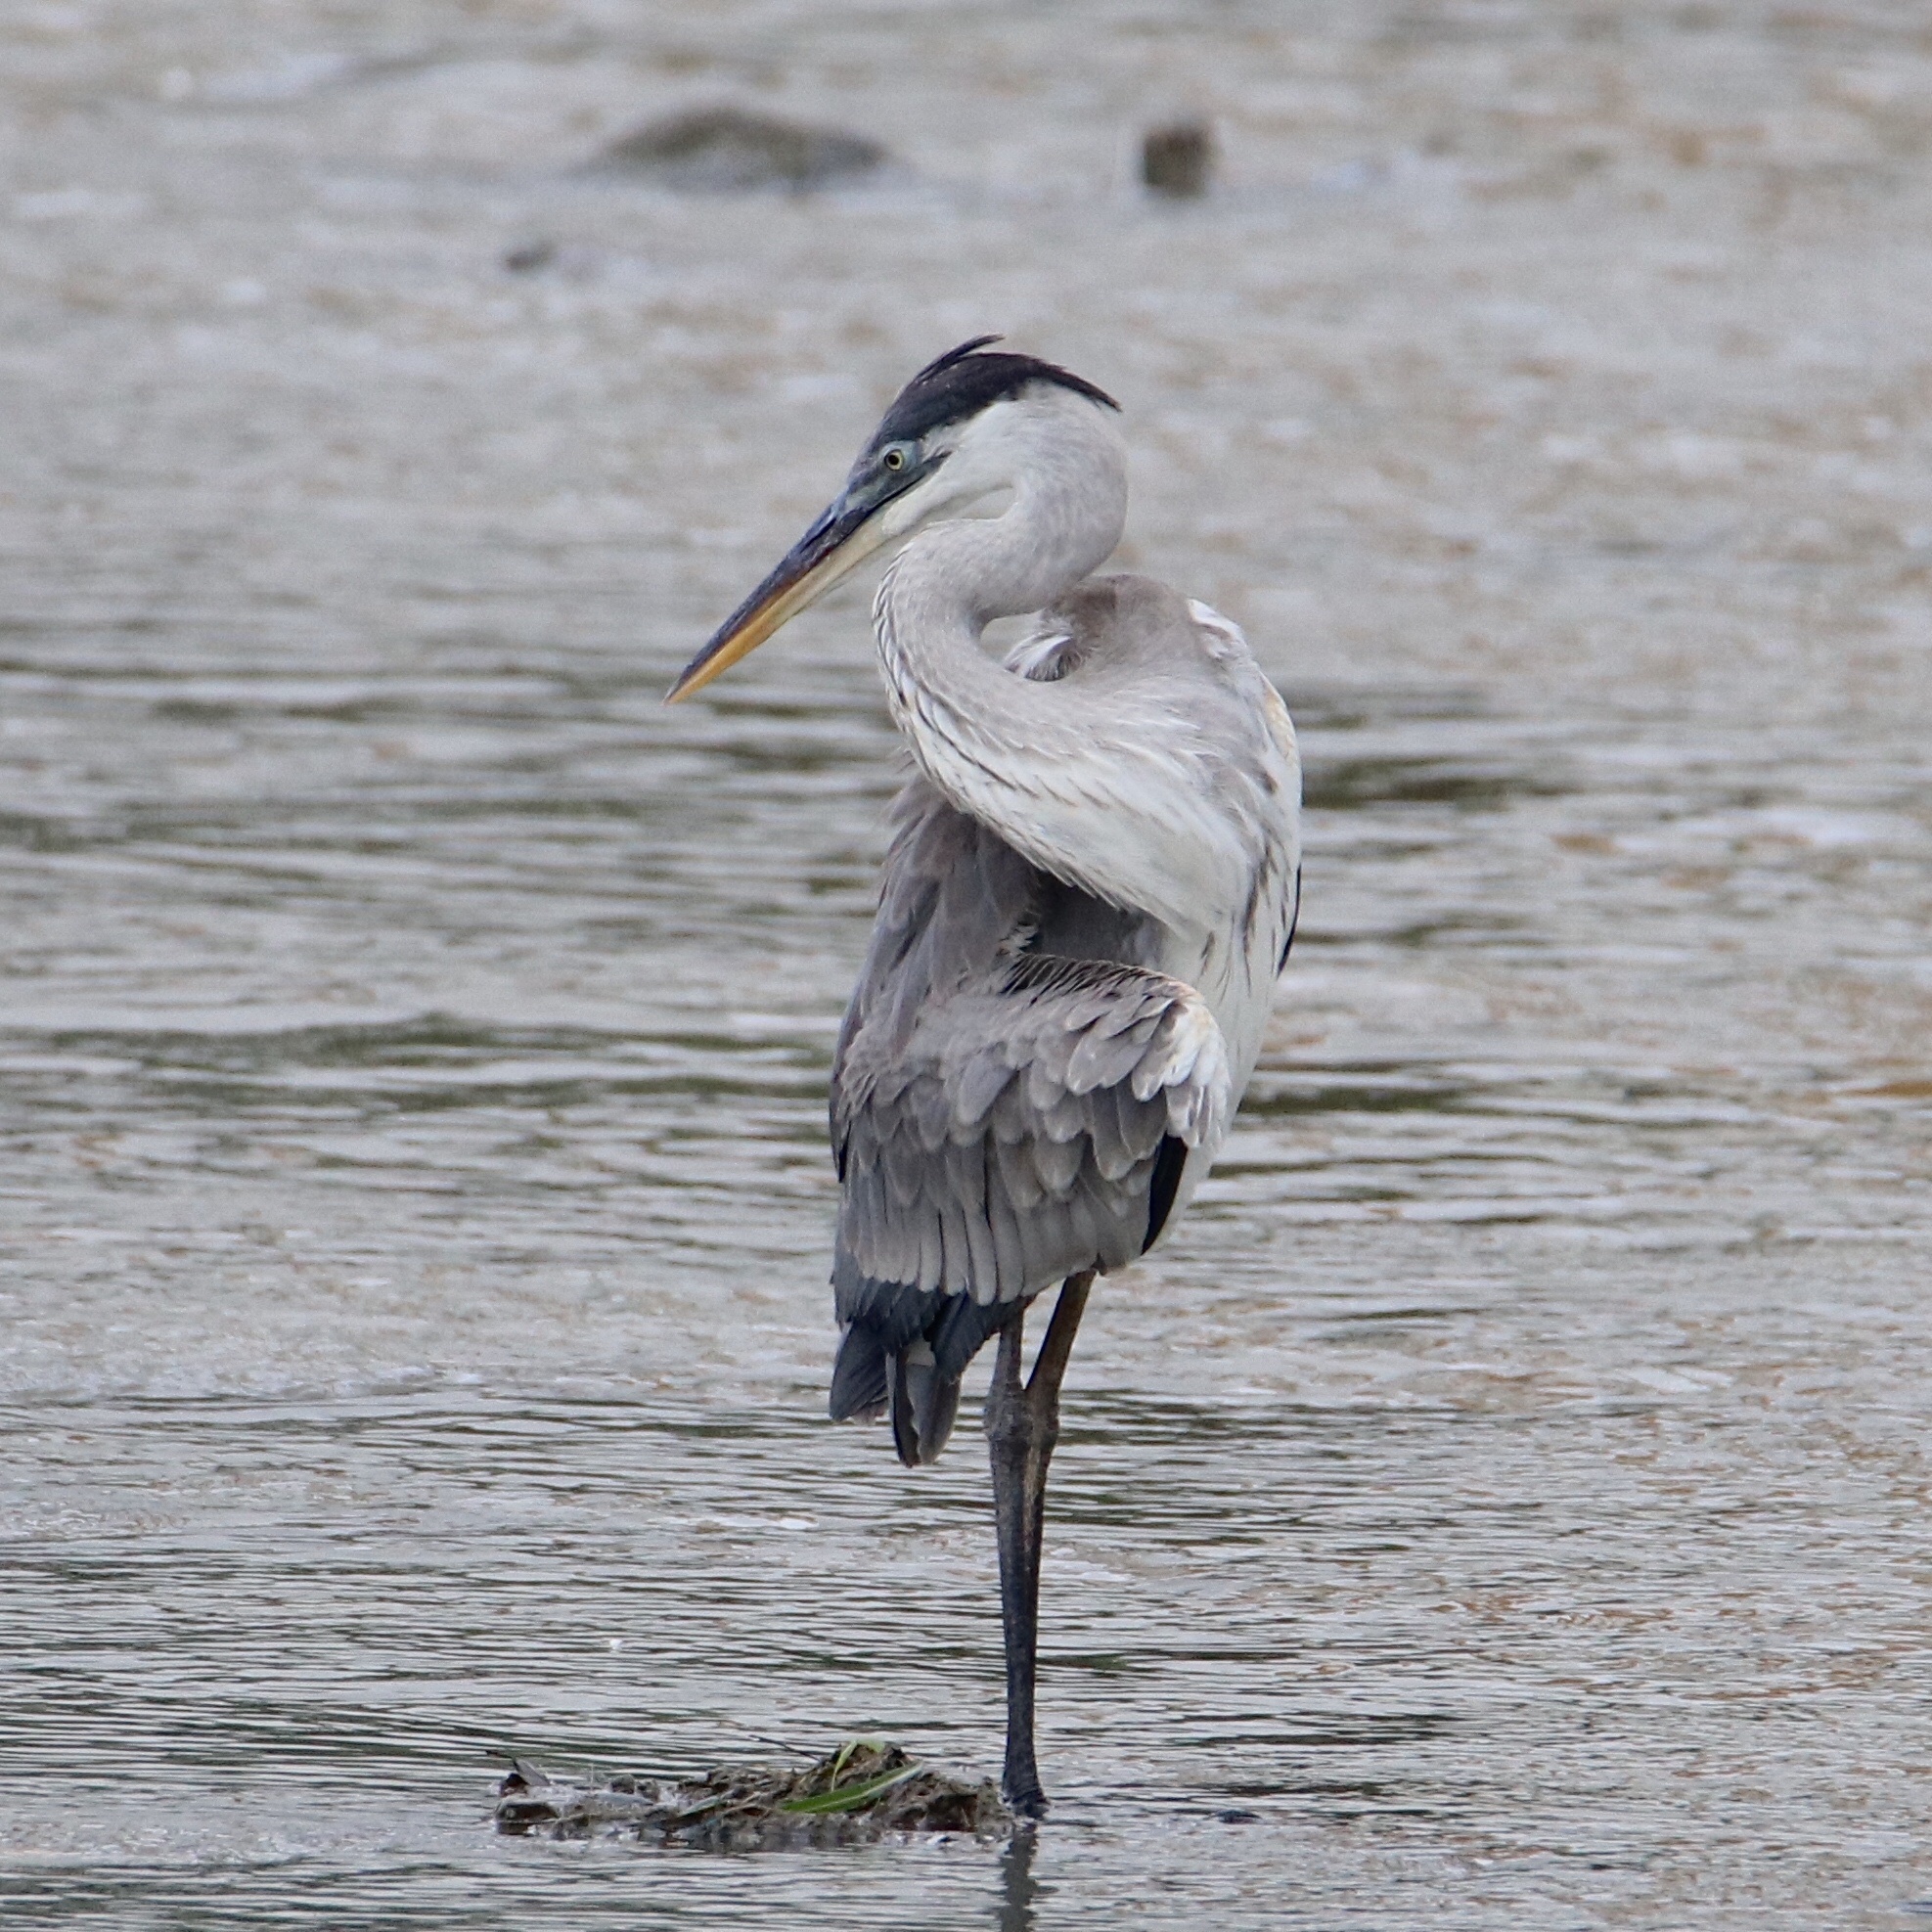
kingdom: Animalia
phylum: Chordata
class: Aves
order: Pelecaniformes
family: Ardeidae
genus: Ardea
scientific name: Ardea cocoi
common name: Cocoi heron
